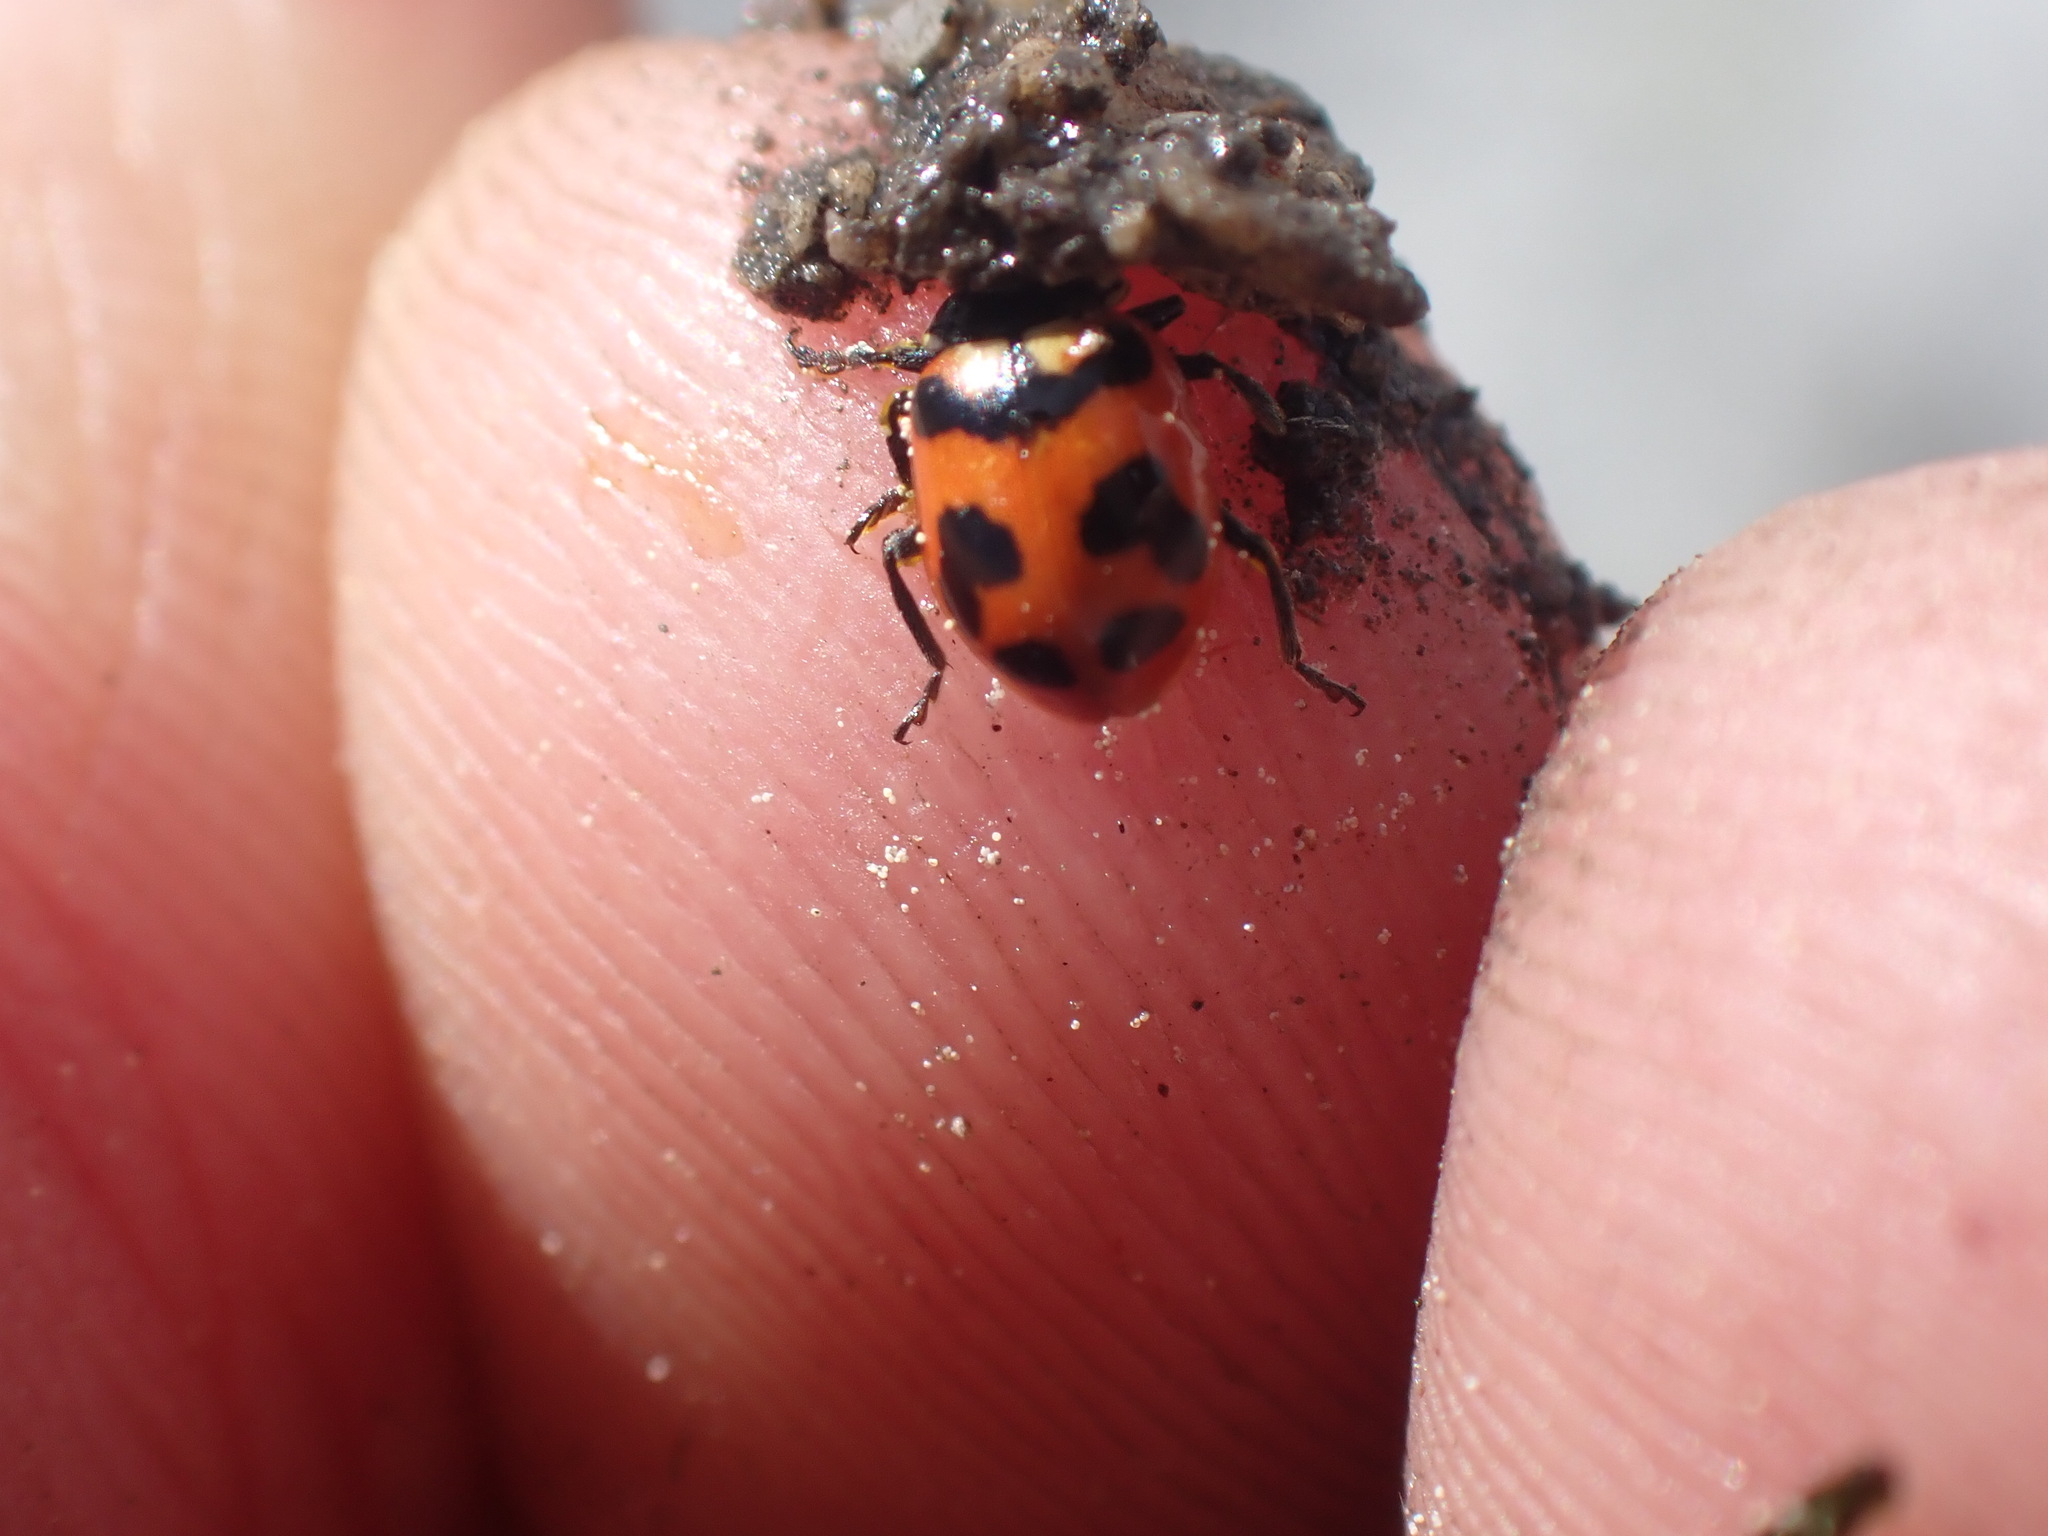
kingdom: Animalia
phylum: Arthropoda
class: Insecta
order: Coleoptera
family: Coccinellidae
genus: Hippodamia
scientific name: Hippodamia oregonensis
